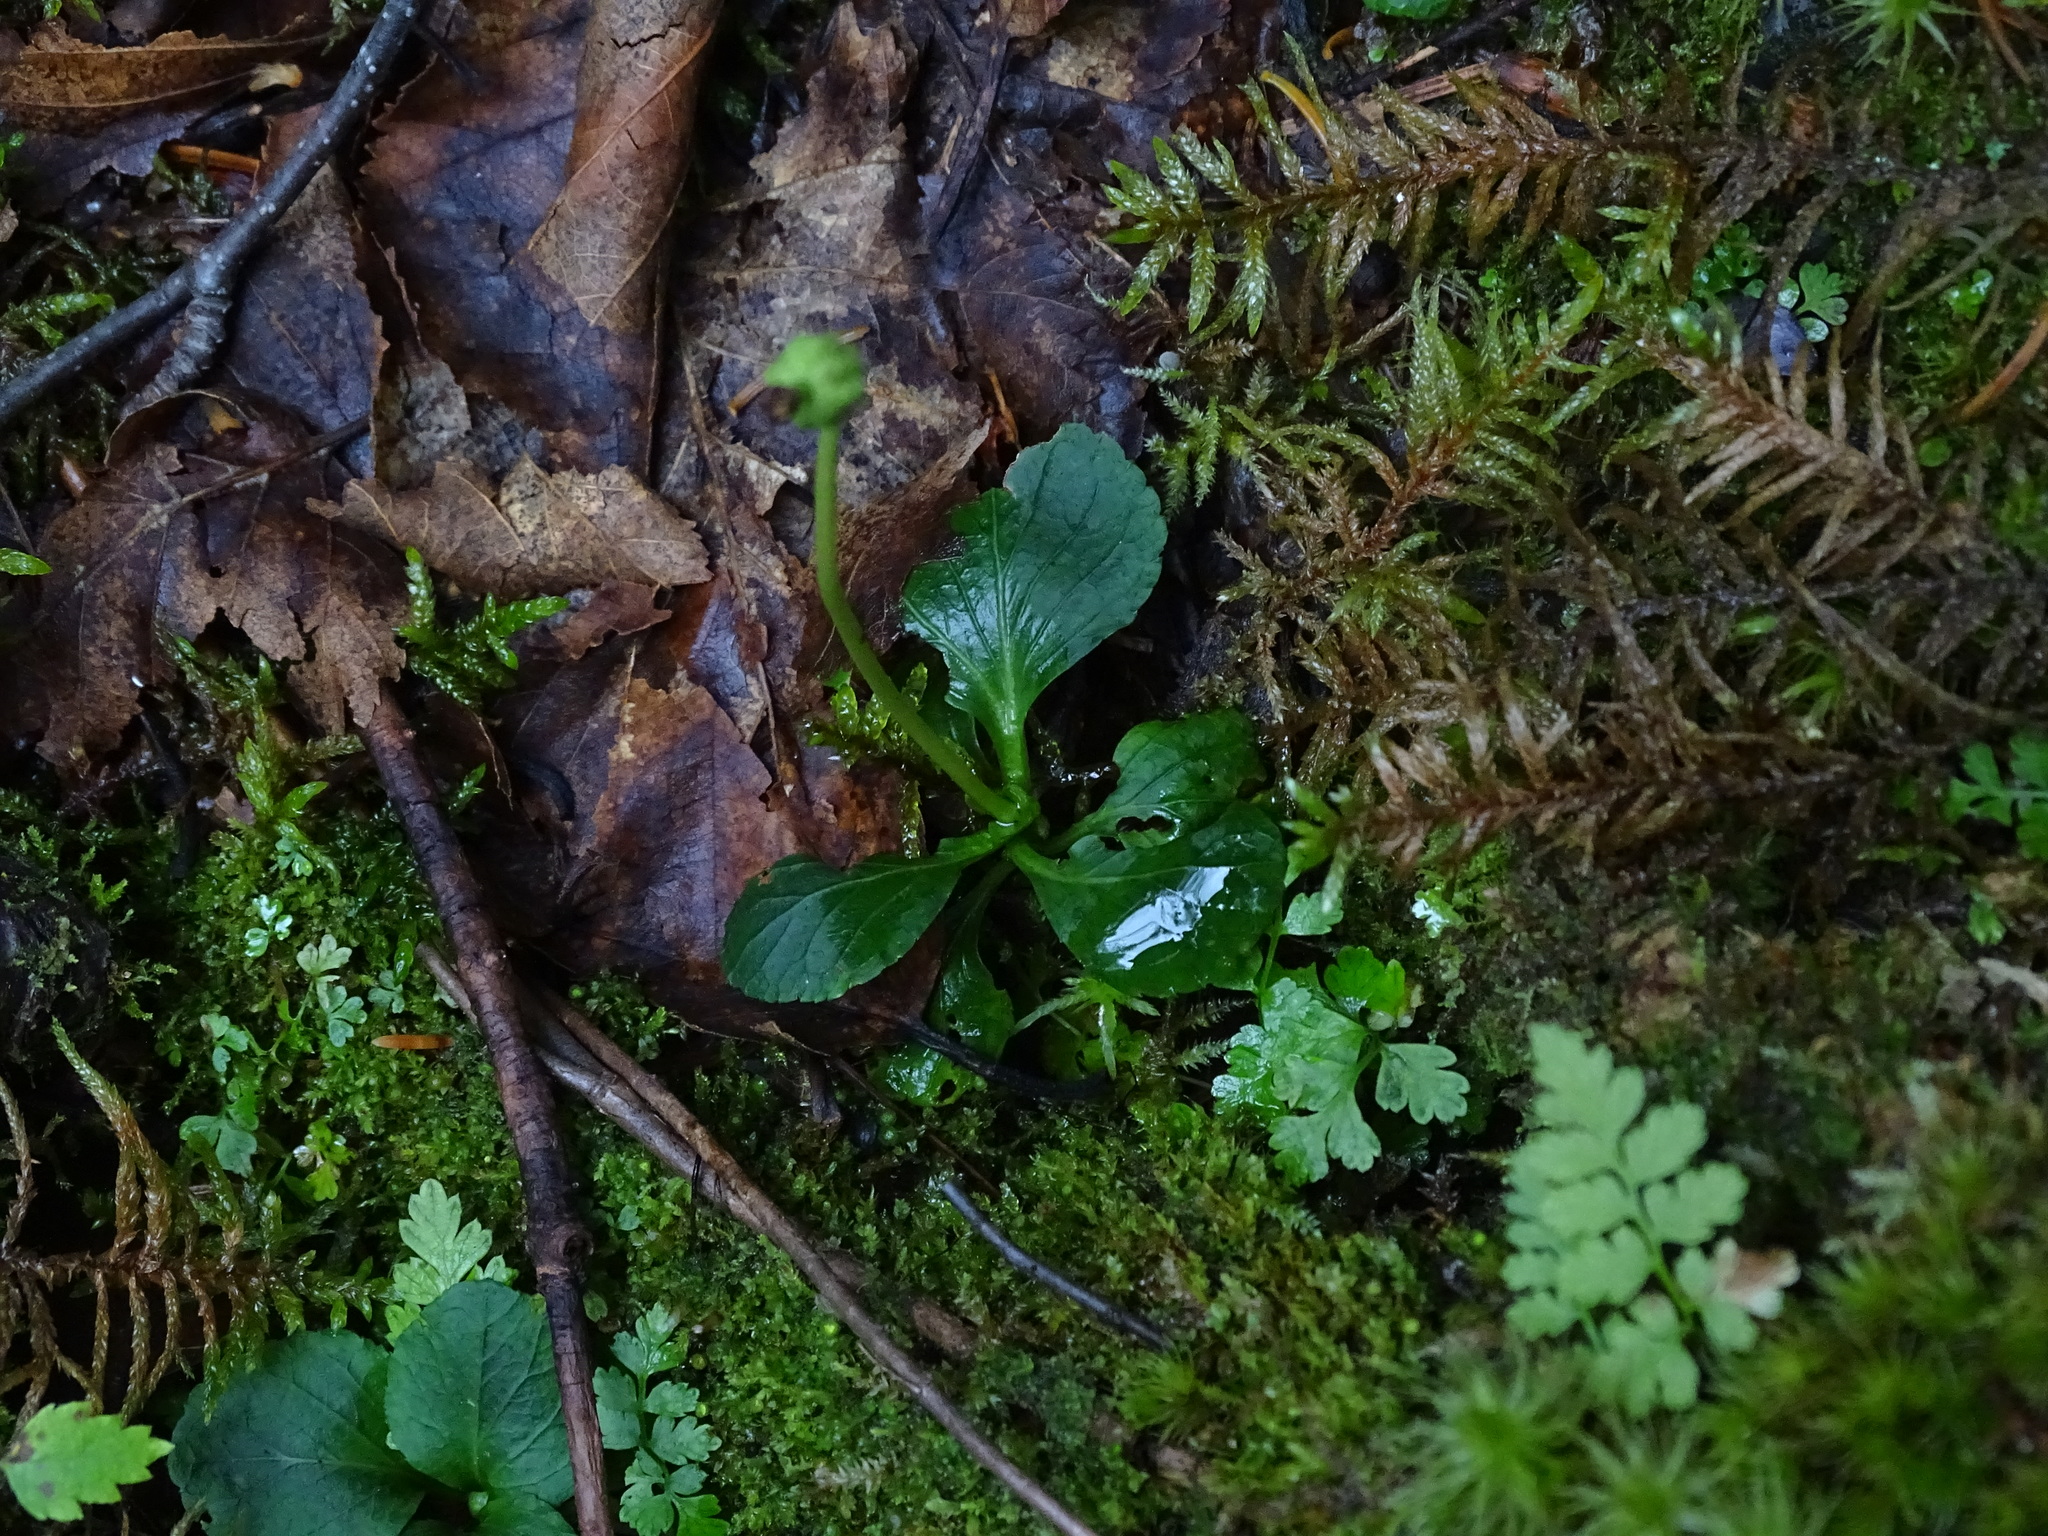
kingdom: Plantae
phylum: Tracheophyta
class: Magnoliopsida
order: Ericales
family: Ericaceae
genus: Moneses
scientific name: Moneses uniflora
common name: One-flowered wintergreen
